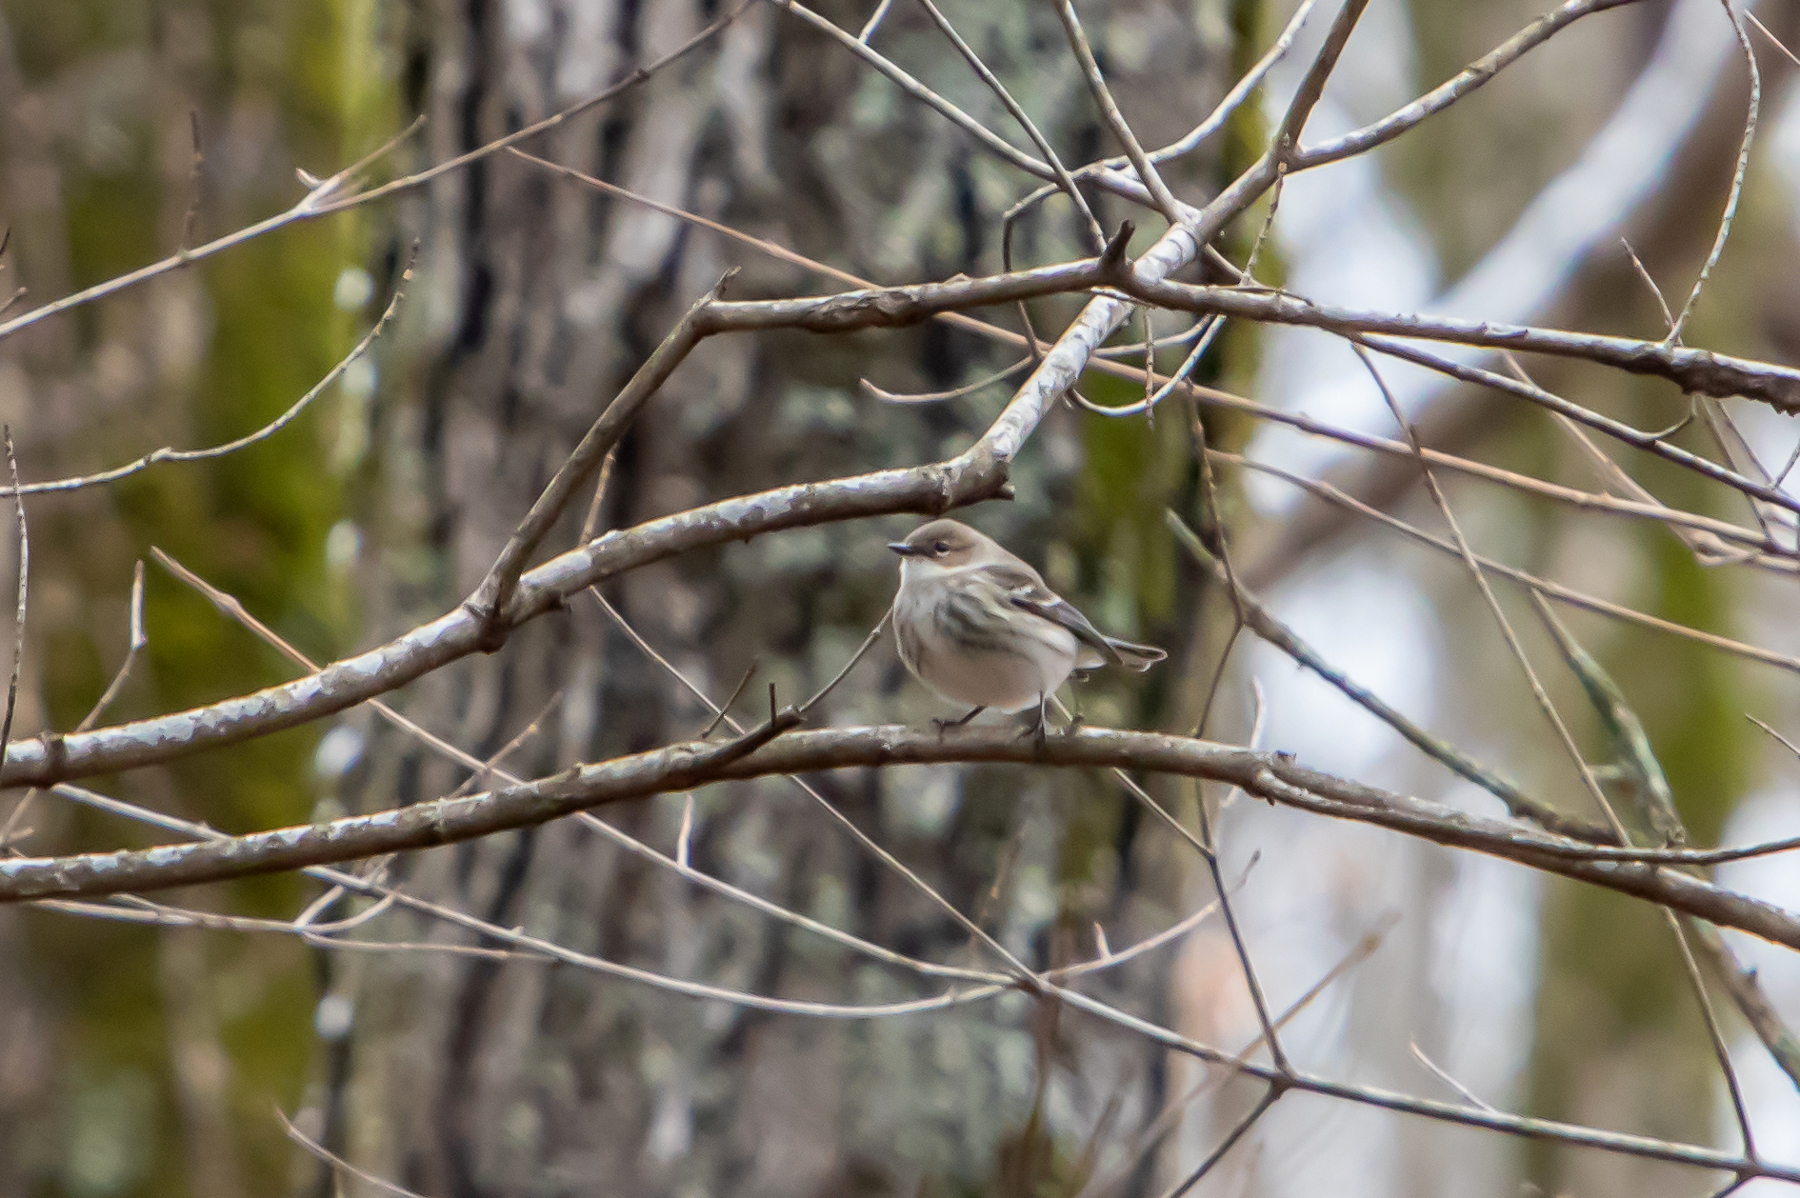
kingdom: Animalia
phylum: Chordata
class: Aves
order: Passeriformes
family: Parulidae
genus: Setophaga
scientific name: Setophaga coronata
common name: Myrtle warbler
